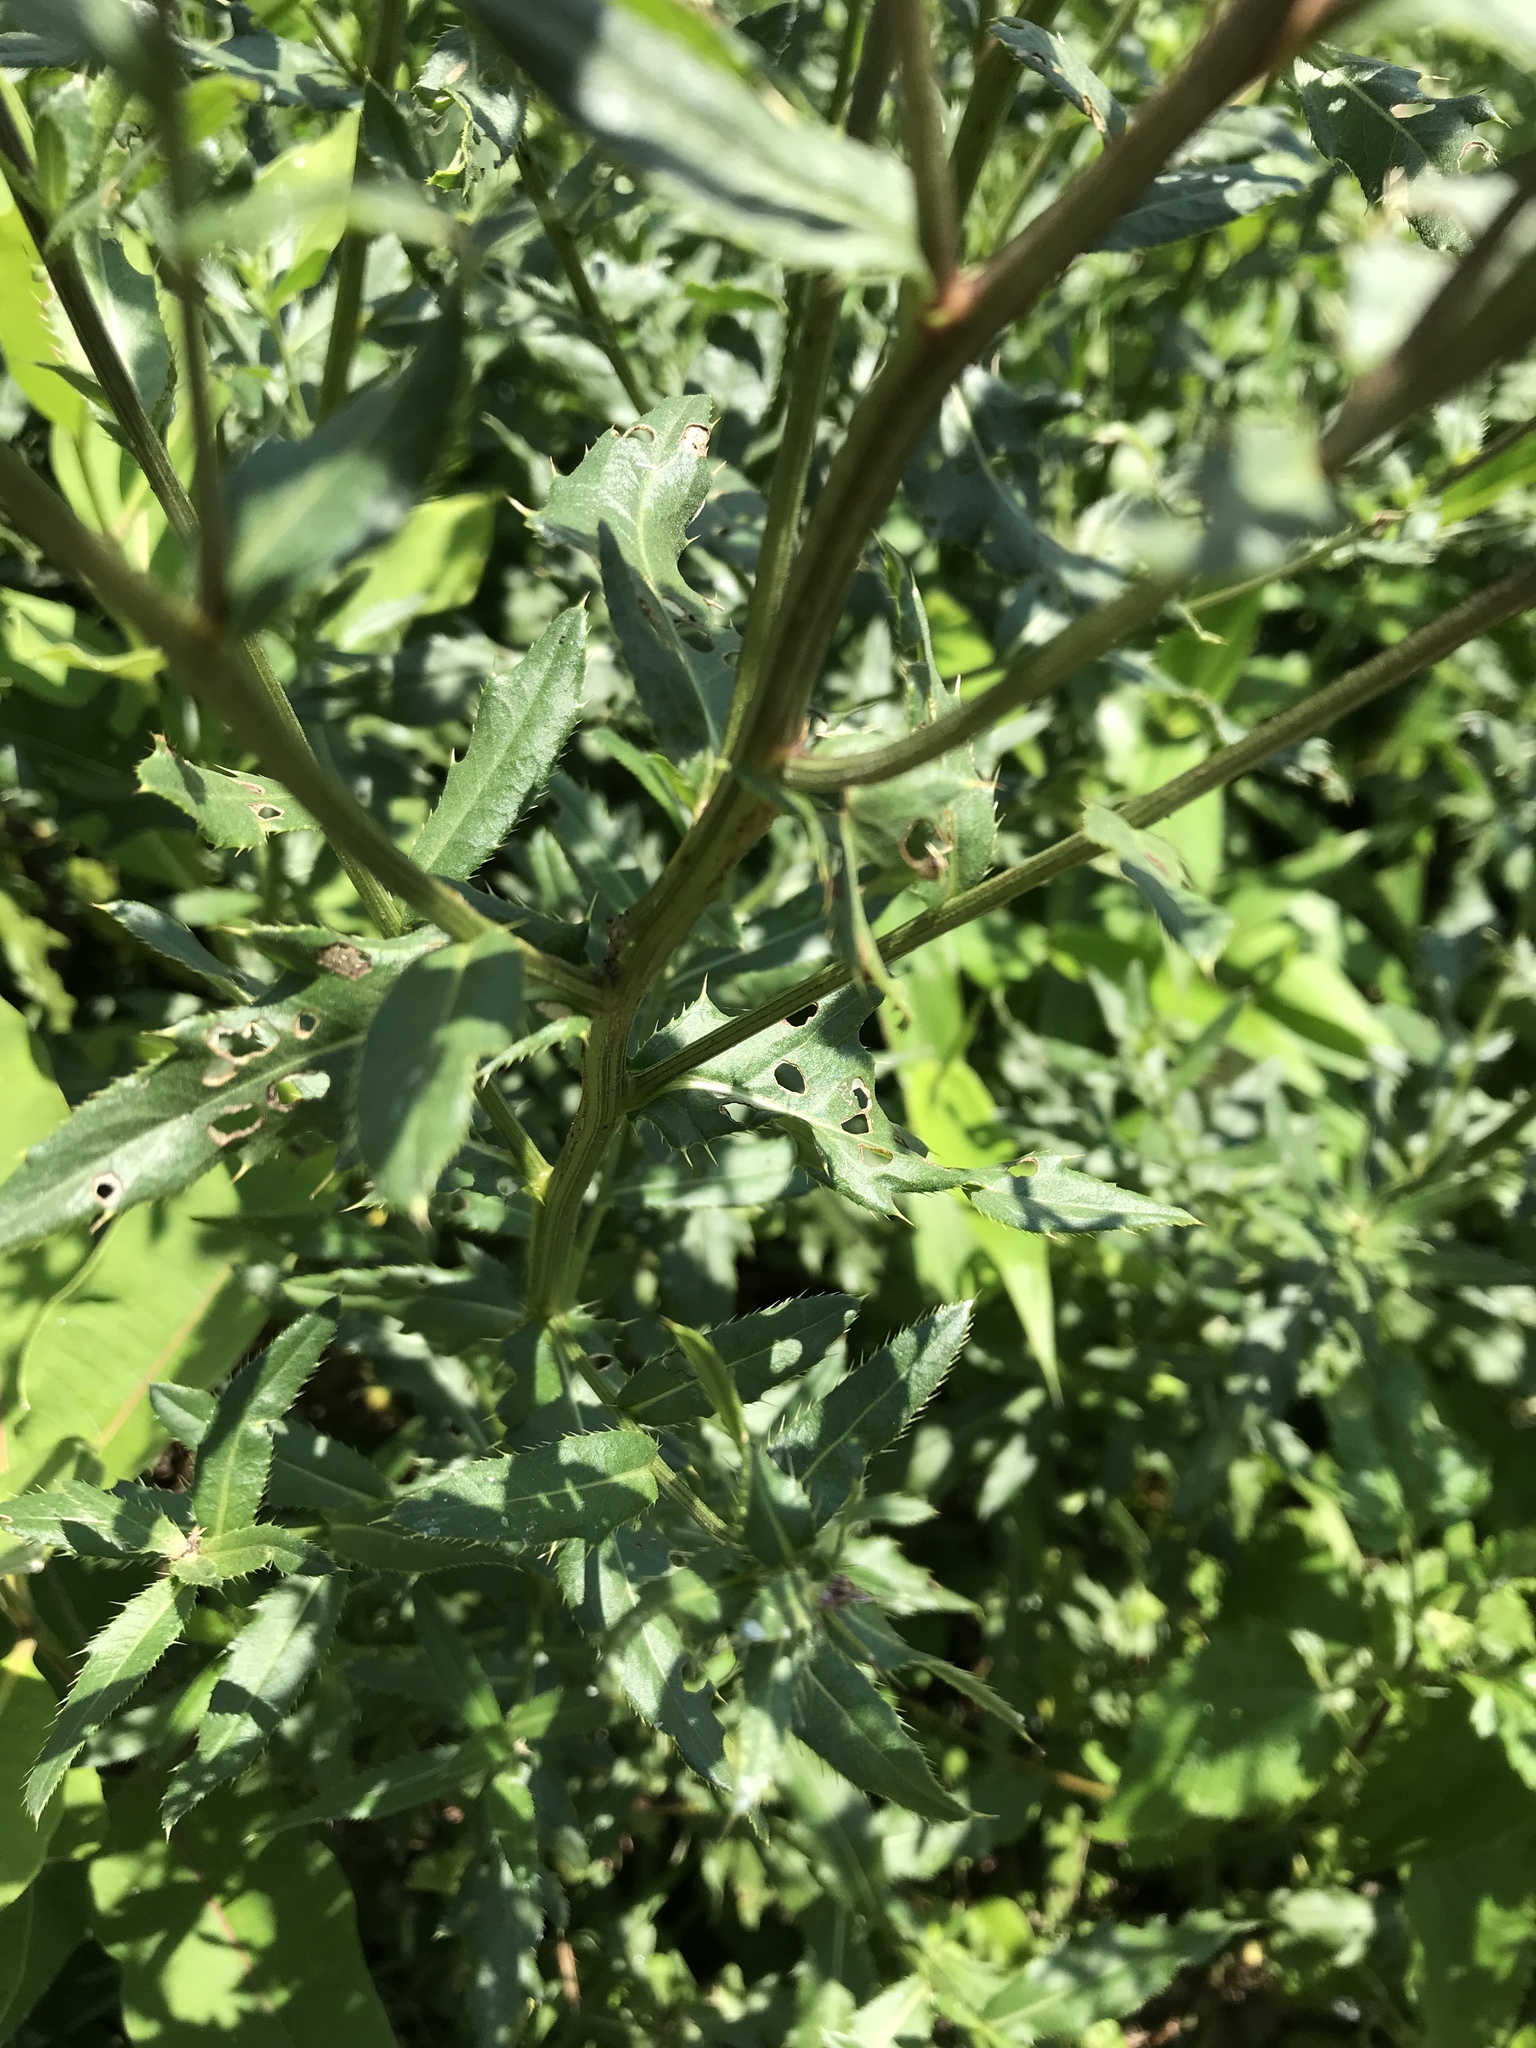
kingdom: Plantae
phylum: Tracheophyta
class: Magnoliopsida
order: Asterales
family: Asteraceae
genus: Cirsium
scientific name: Cirsium arvense
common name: Creeping thistle
